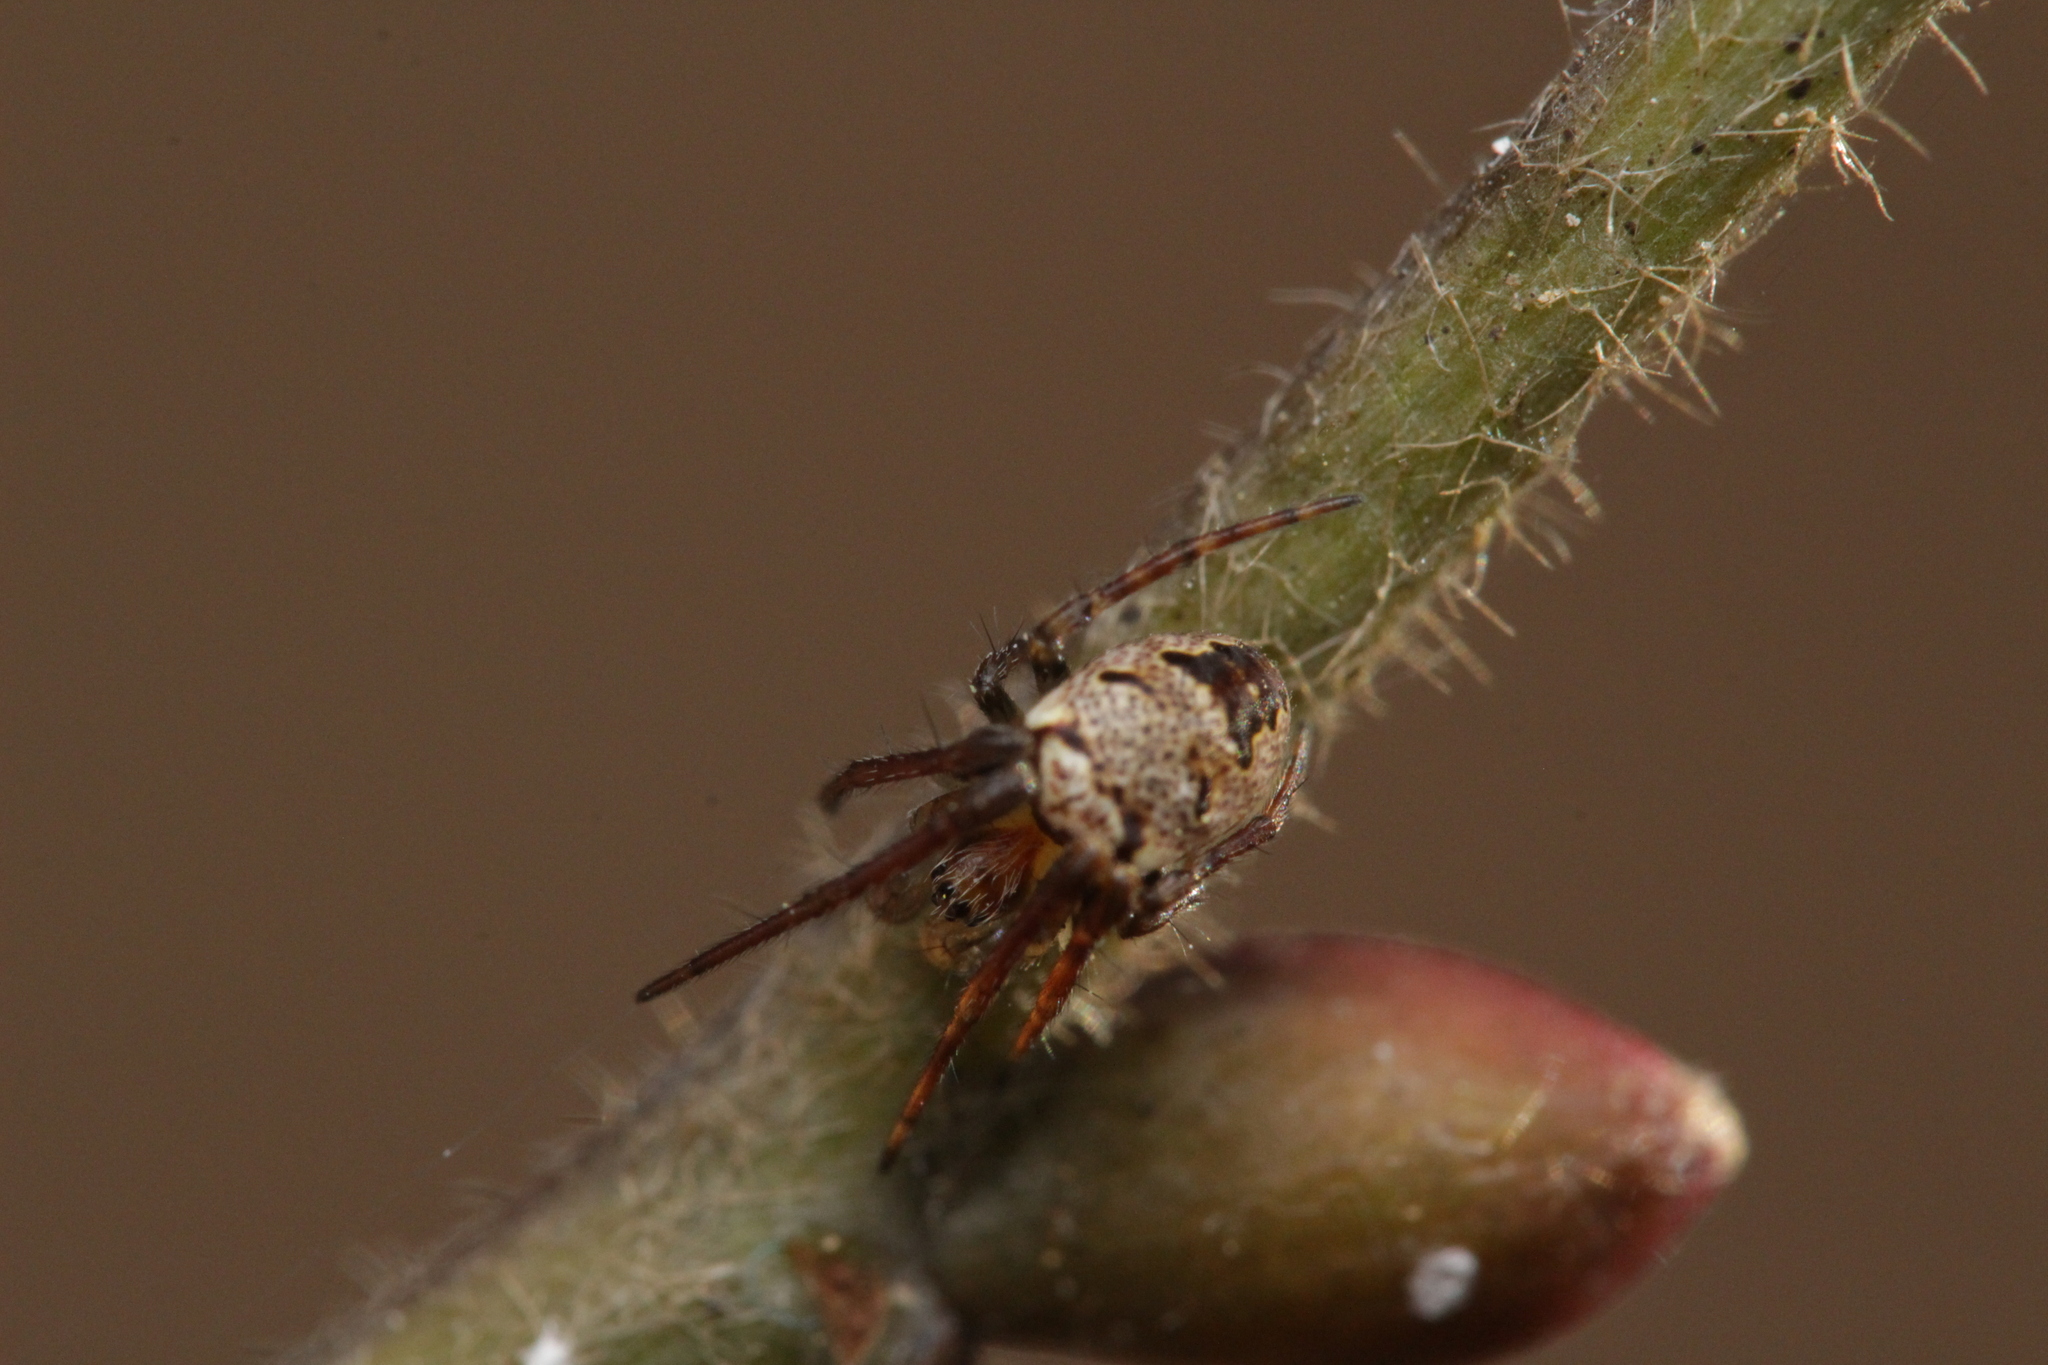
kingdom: Animalia
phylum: Arthropoda
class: Arachnida
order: Araneae
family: Araneidae
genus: Zilla
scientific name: Zilla diodia
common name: Zilla diodia
